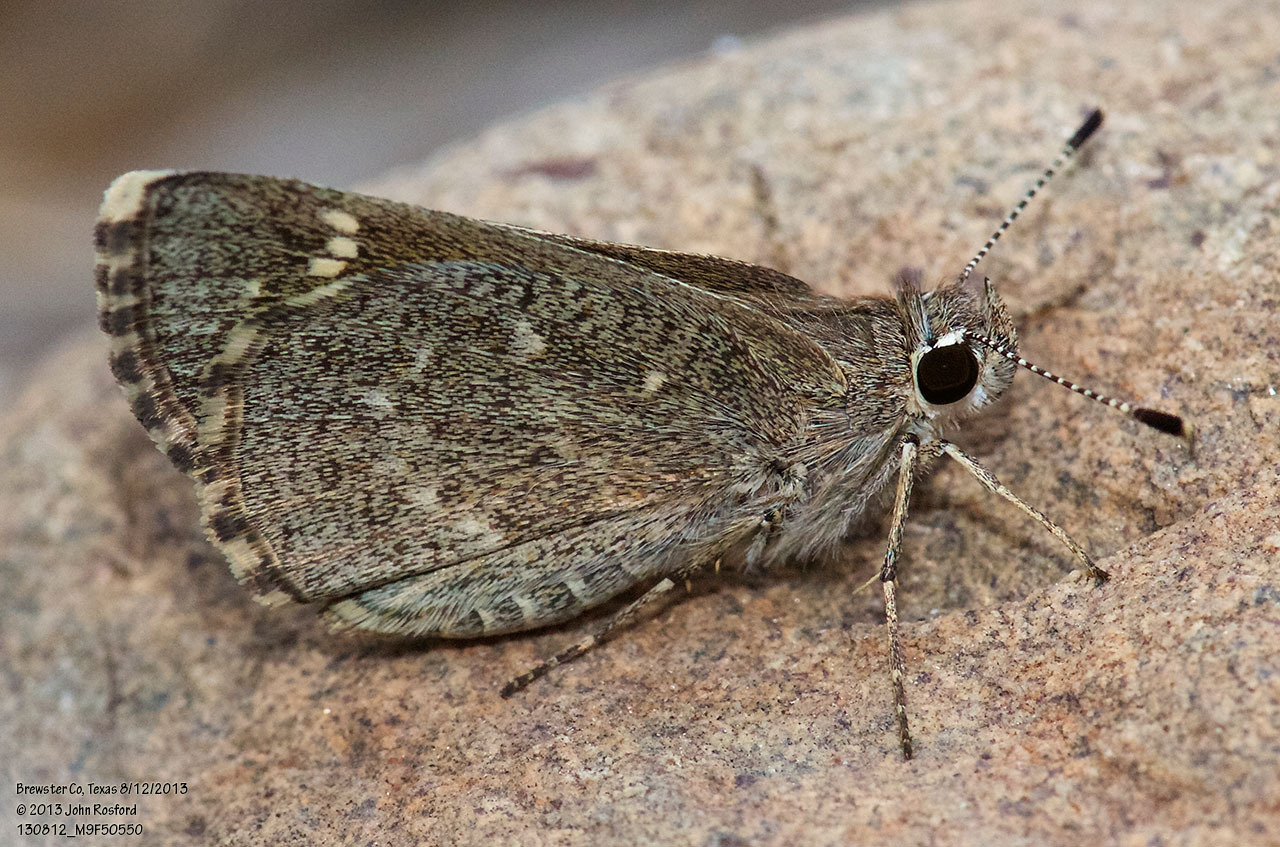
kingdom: Animalia
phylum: Arthropoda
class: Insecta
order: Lepidoptera
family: Hesperiidae
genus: Mastor
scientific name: Mastor texanae
